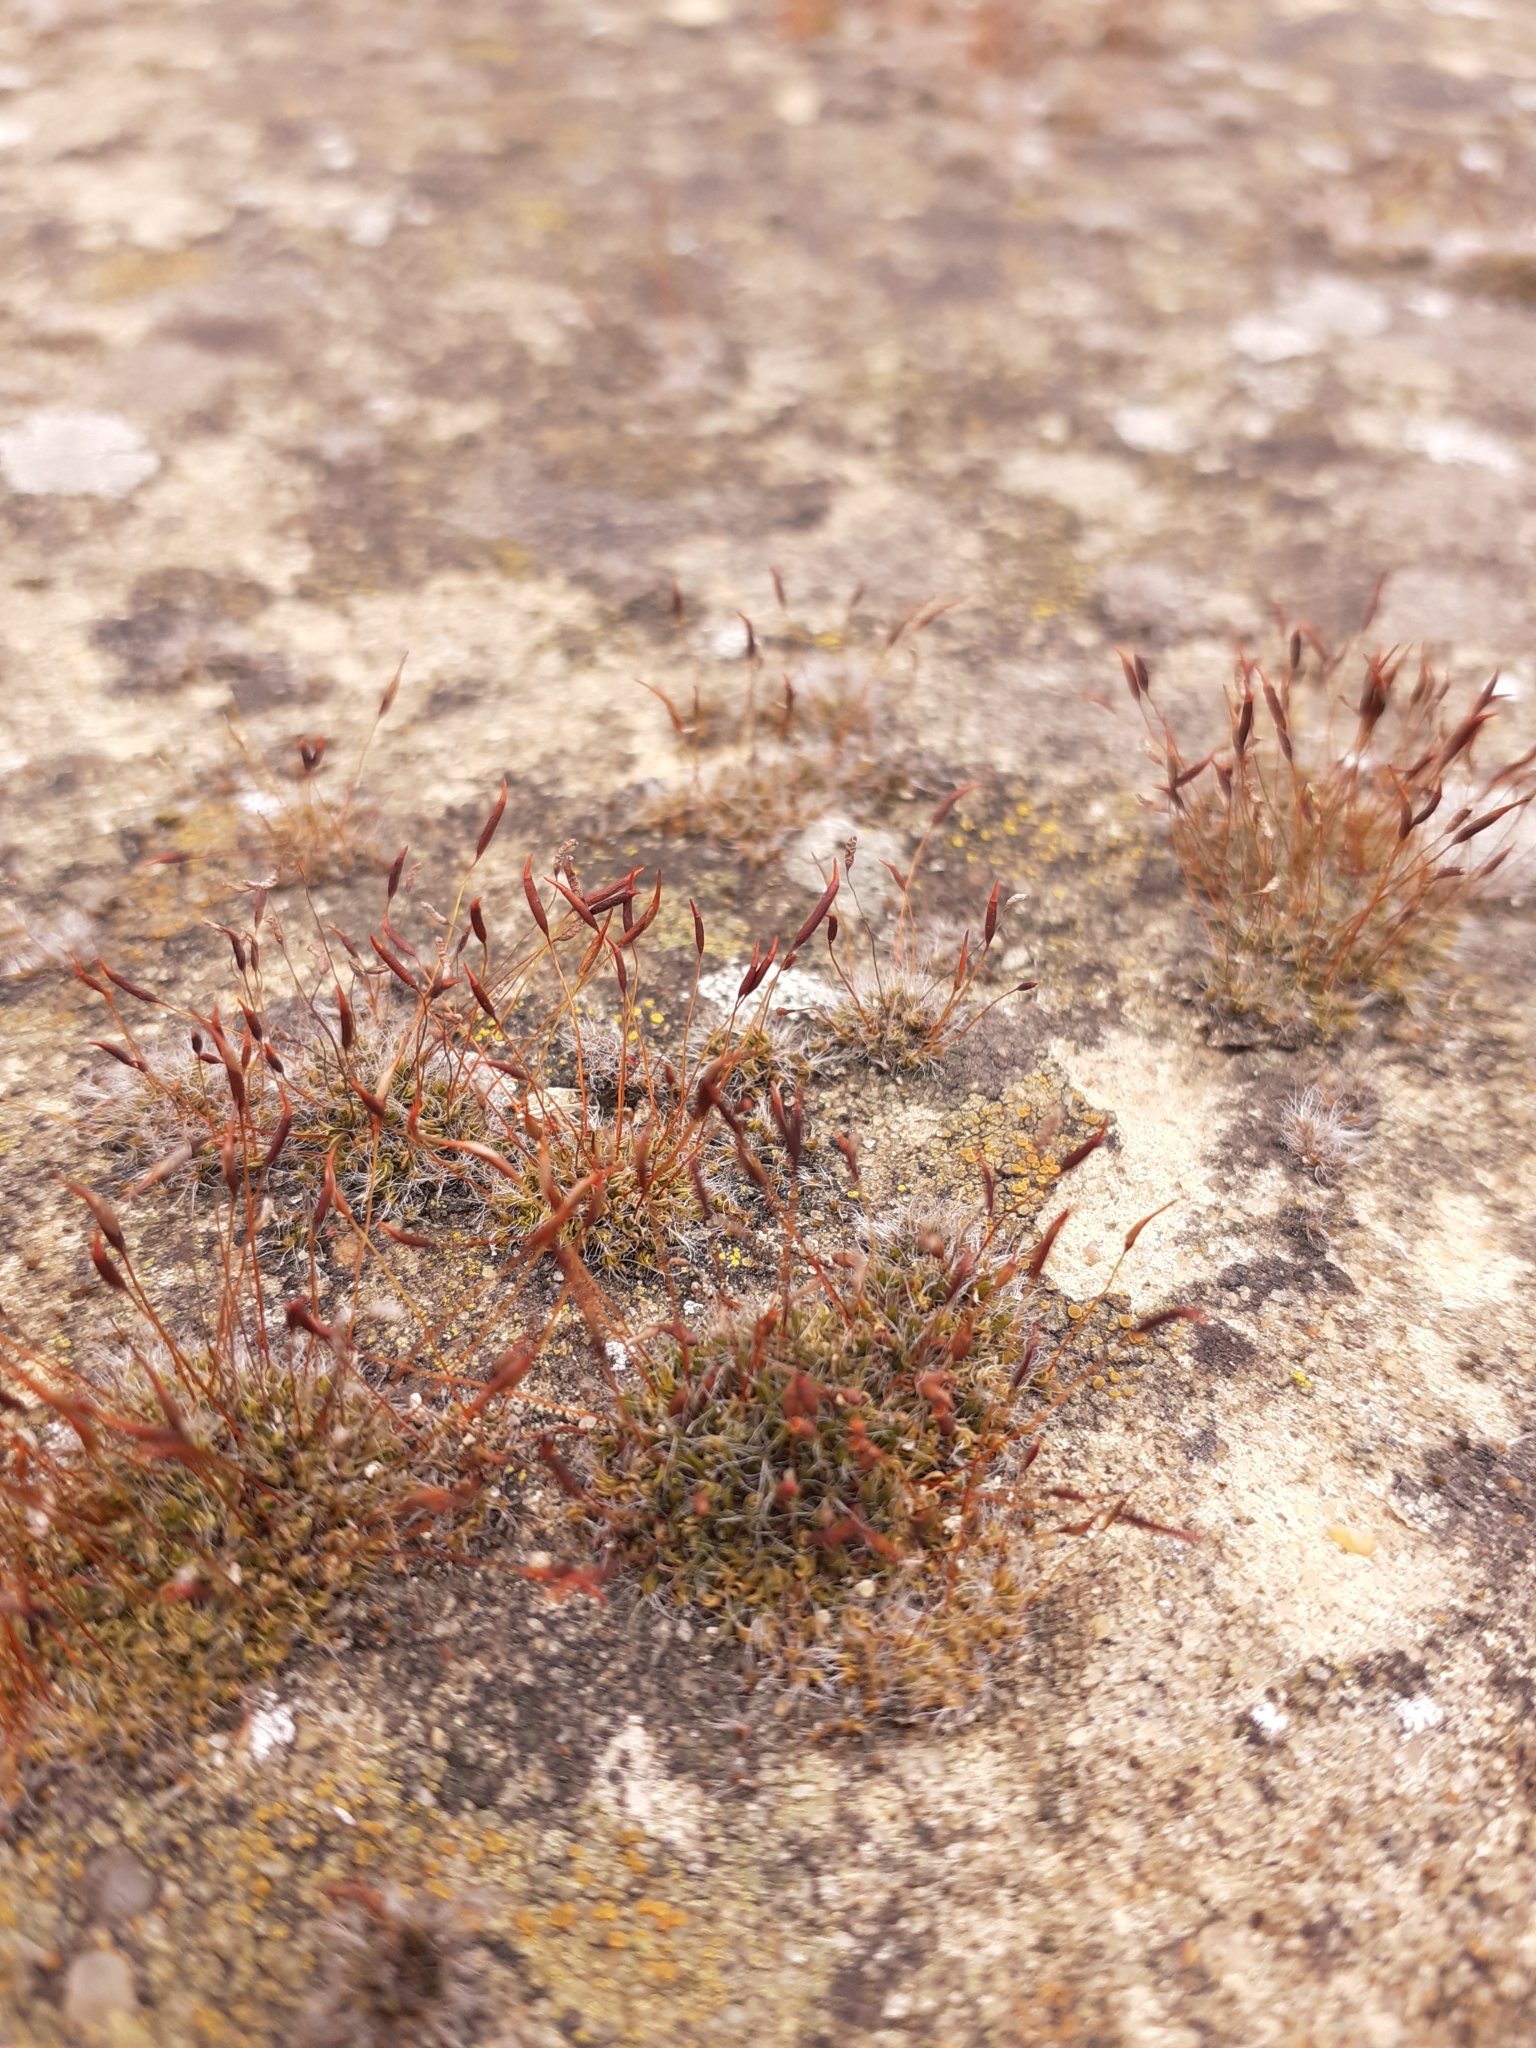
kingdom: Plantae
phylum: Bryophyta
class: Bryopsida
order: Pottiales
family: Pottiaceae
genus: Tortula
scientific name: Tortula muralis
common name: Wall screw-moss
